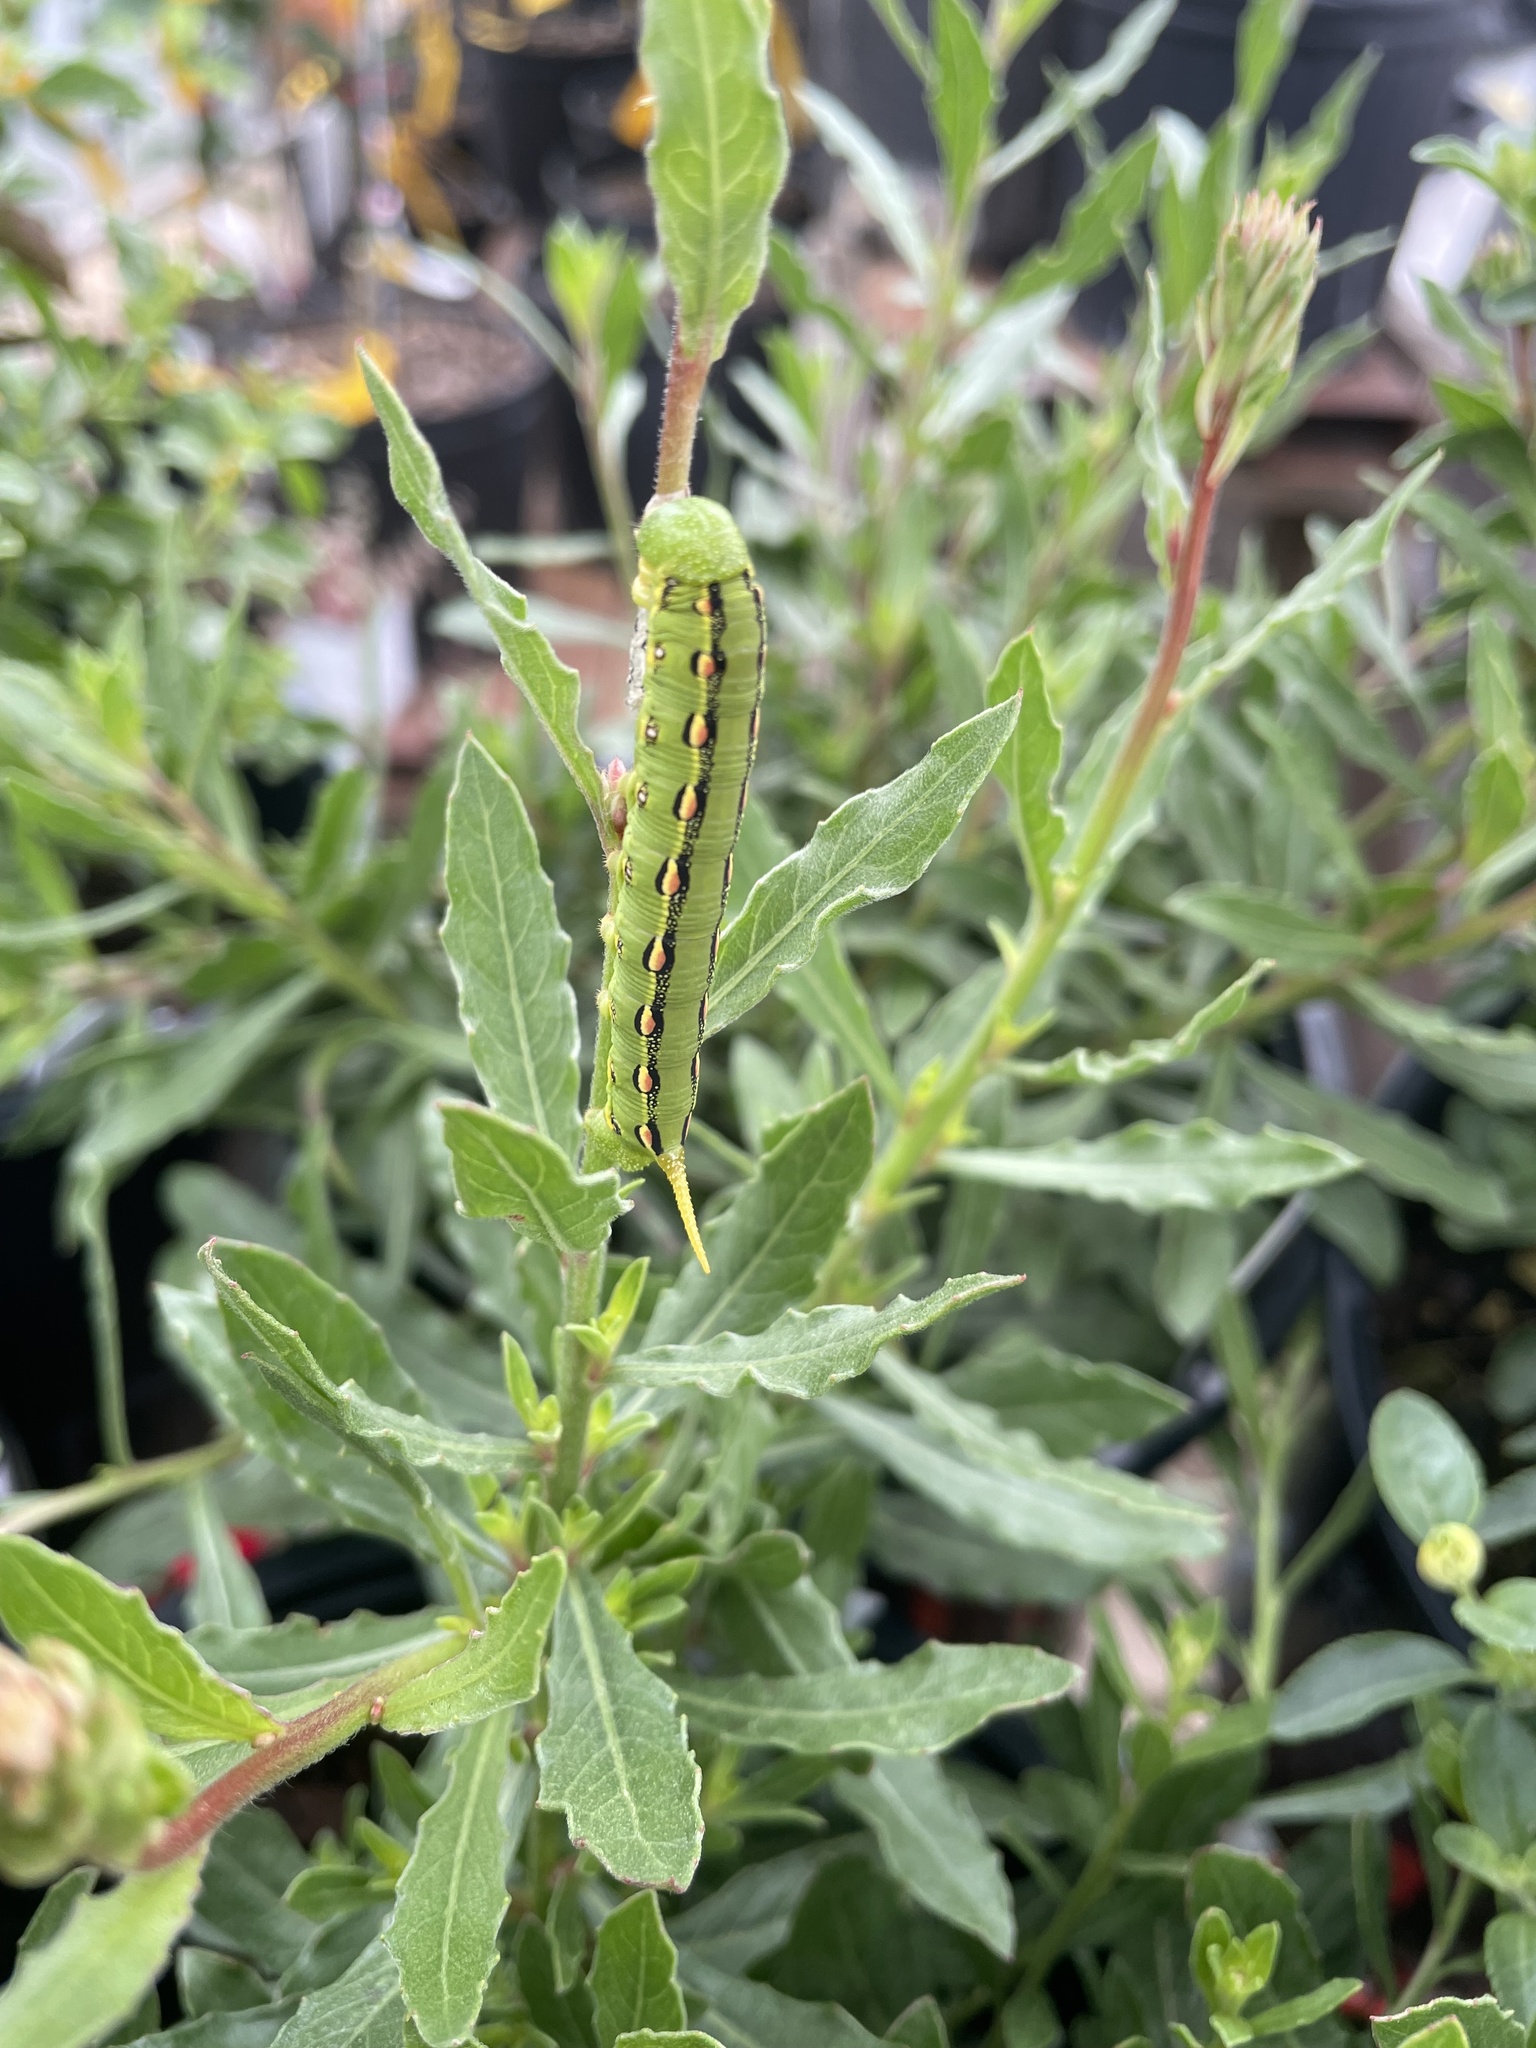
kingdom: Animalia
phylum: Arthropoda
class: Insecta
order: Lepidoptera
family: Sphingidae
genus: Hyles
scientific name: Hyles lineata
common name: White-lined sphinx
